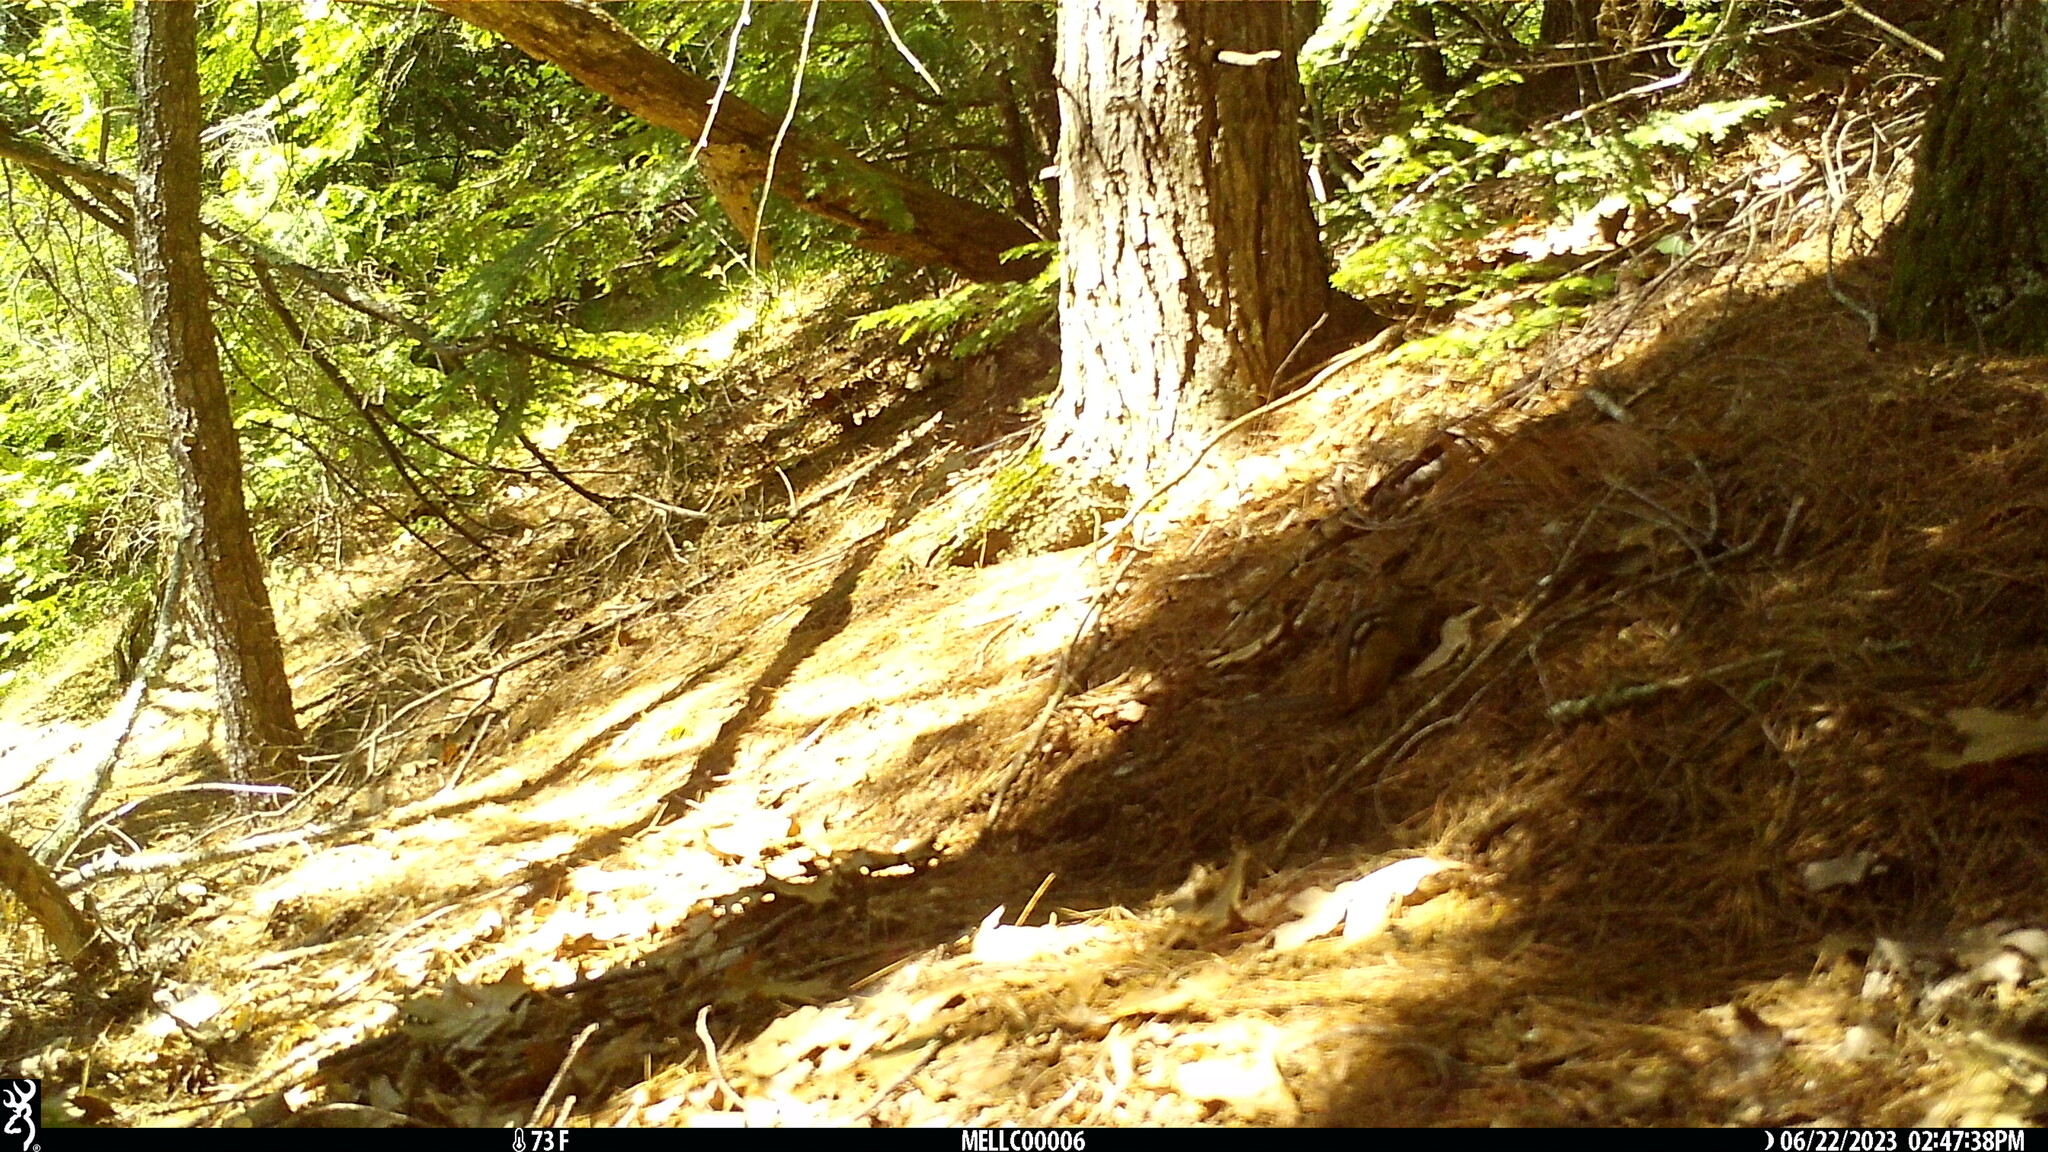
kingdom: Animalia
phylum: Chordata
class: Mammalia
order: Rodentia
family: Sciuridae
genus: Tamias
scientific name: Tamias striatus
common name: Eastern chipmunk
